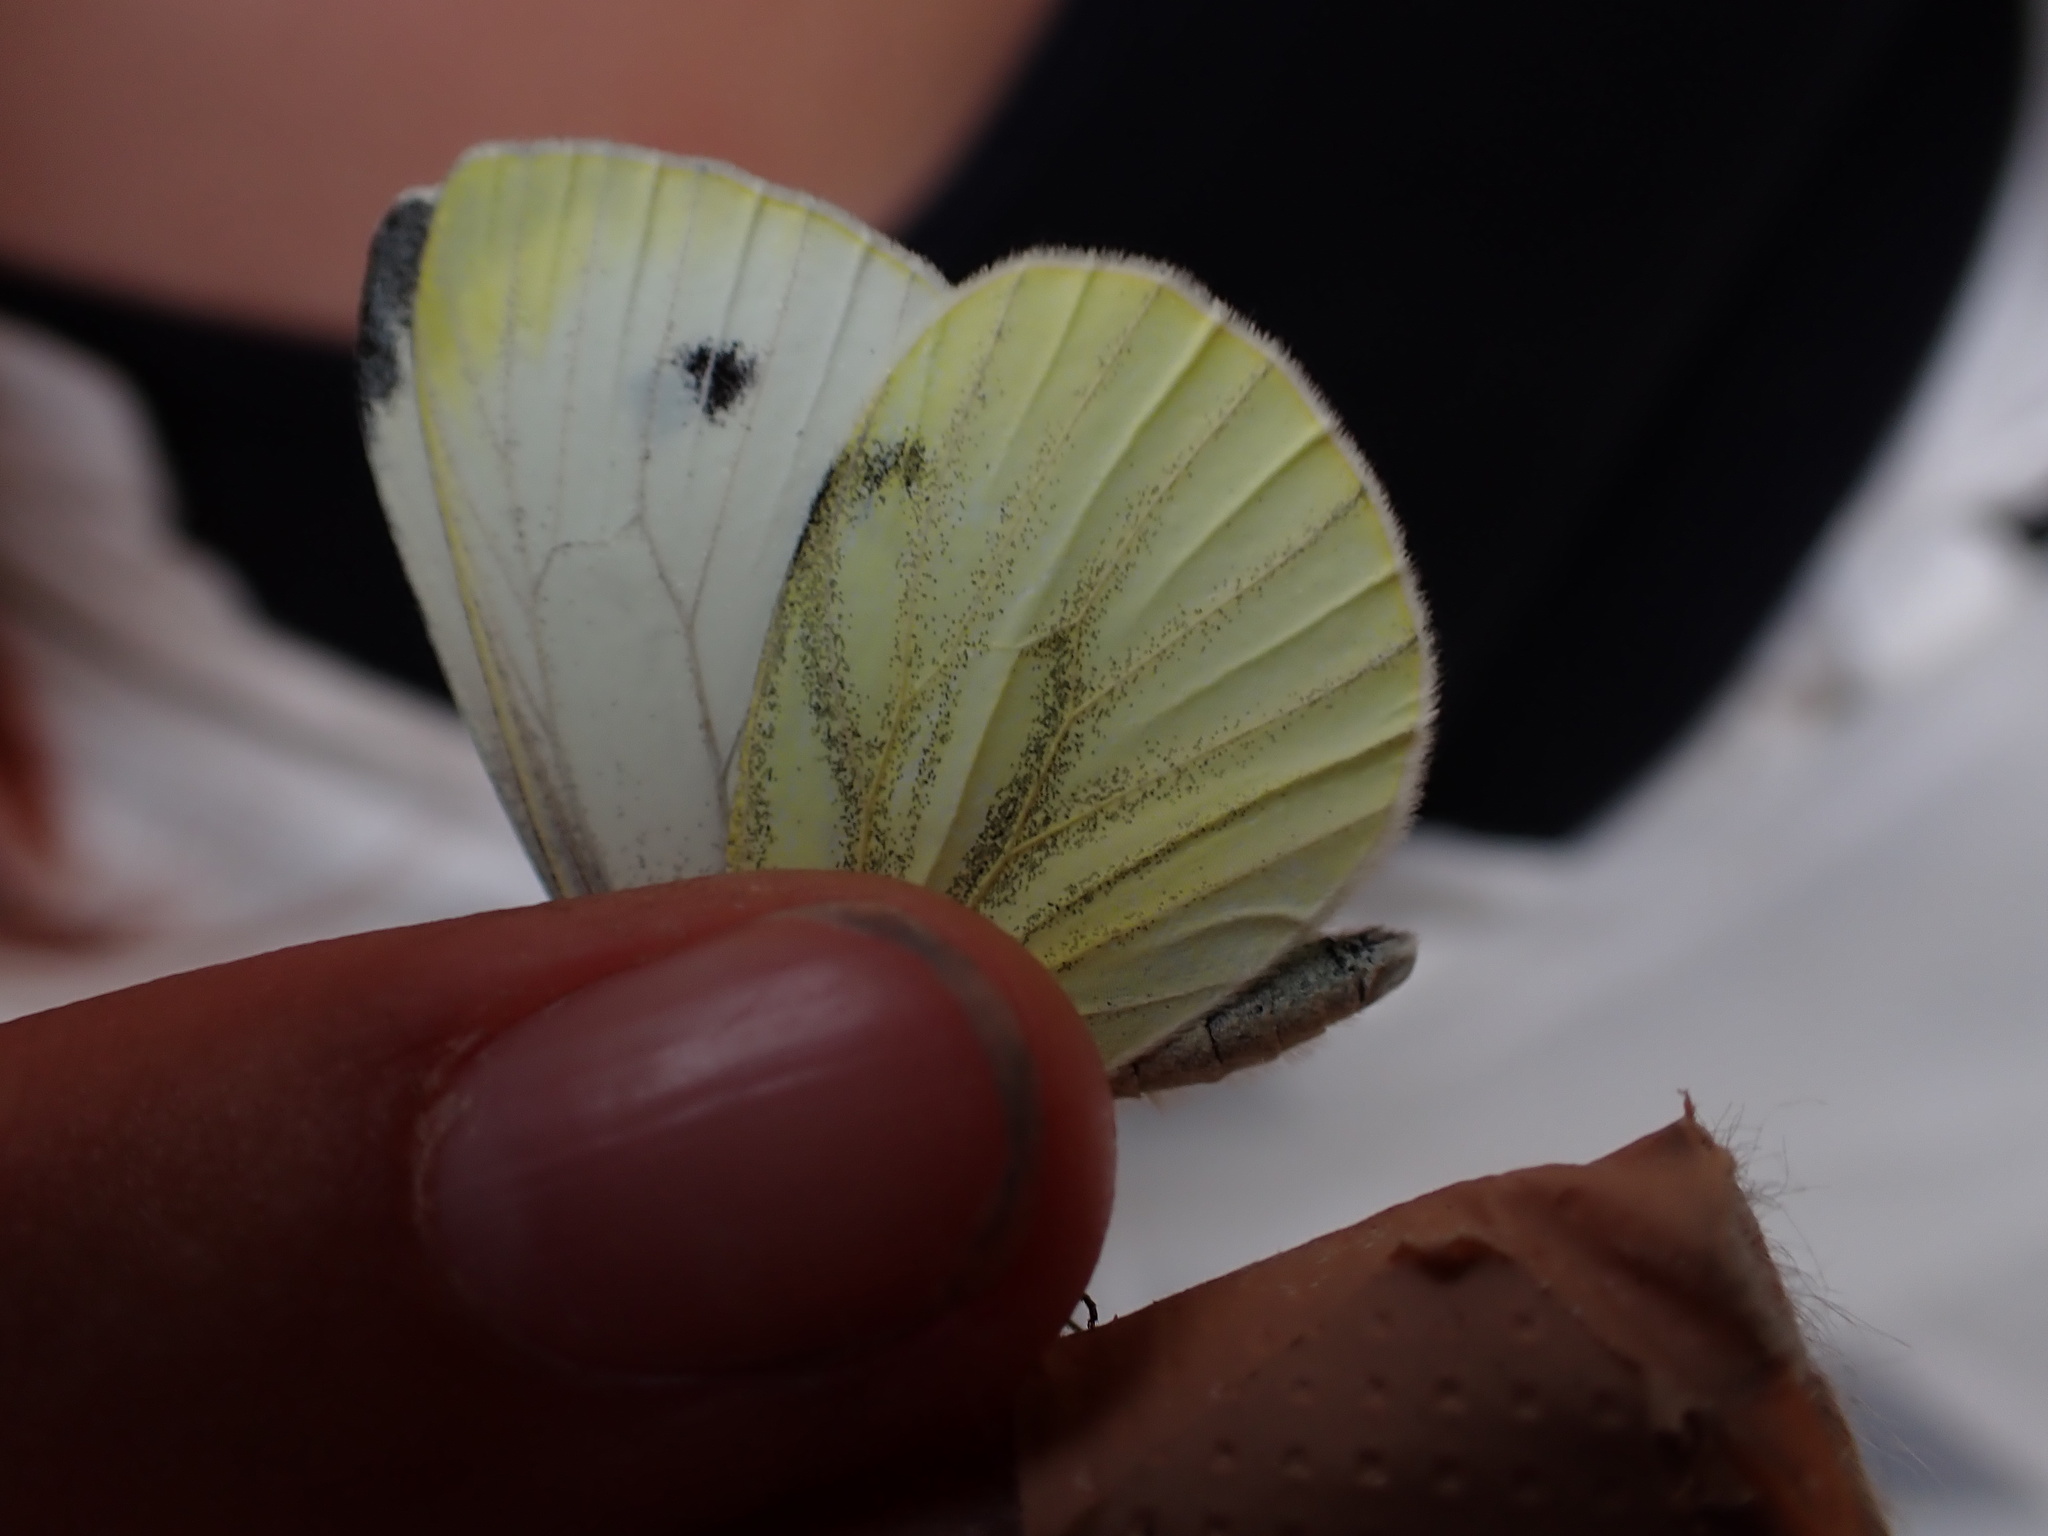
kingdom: Animalia
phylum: Arthropoda
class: Insecta
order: Lepidoptera
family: Pieridae
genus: Pieris
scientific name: Pieris napi
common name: Green-veined white
